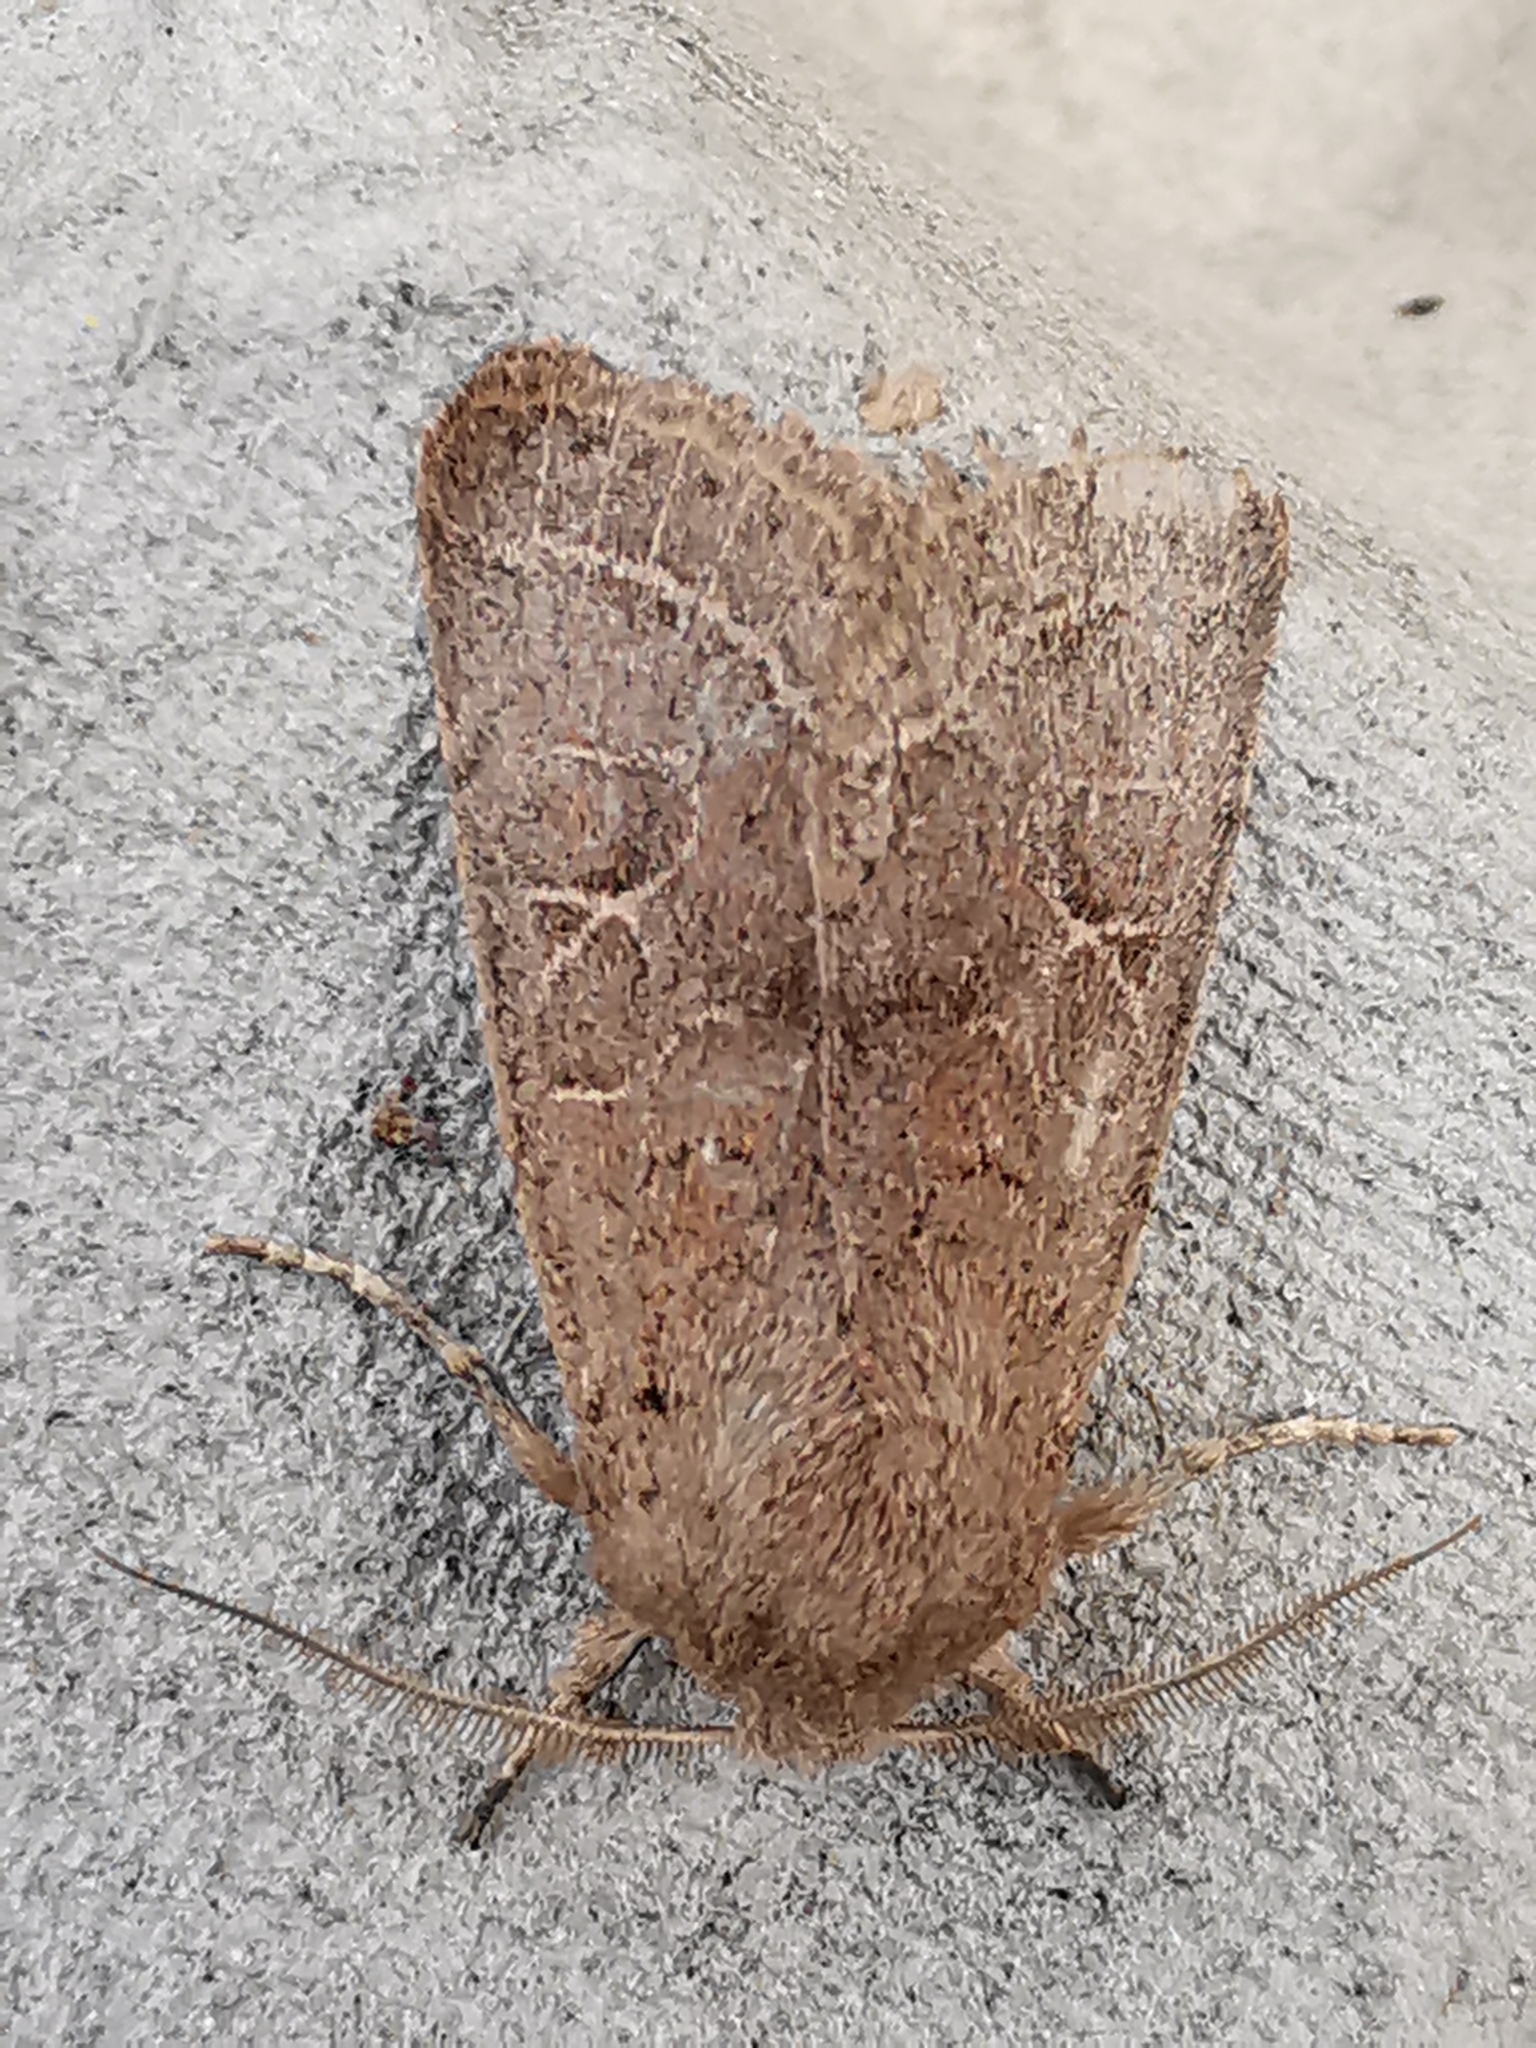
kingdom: Animalia
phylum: Arthropoda
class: Insecta
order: Lepidoptera
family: Noctuidae
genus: Orthosia
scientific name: Orthosia cerasi
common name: Common quaker
